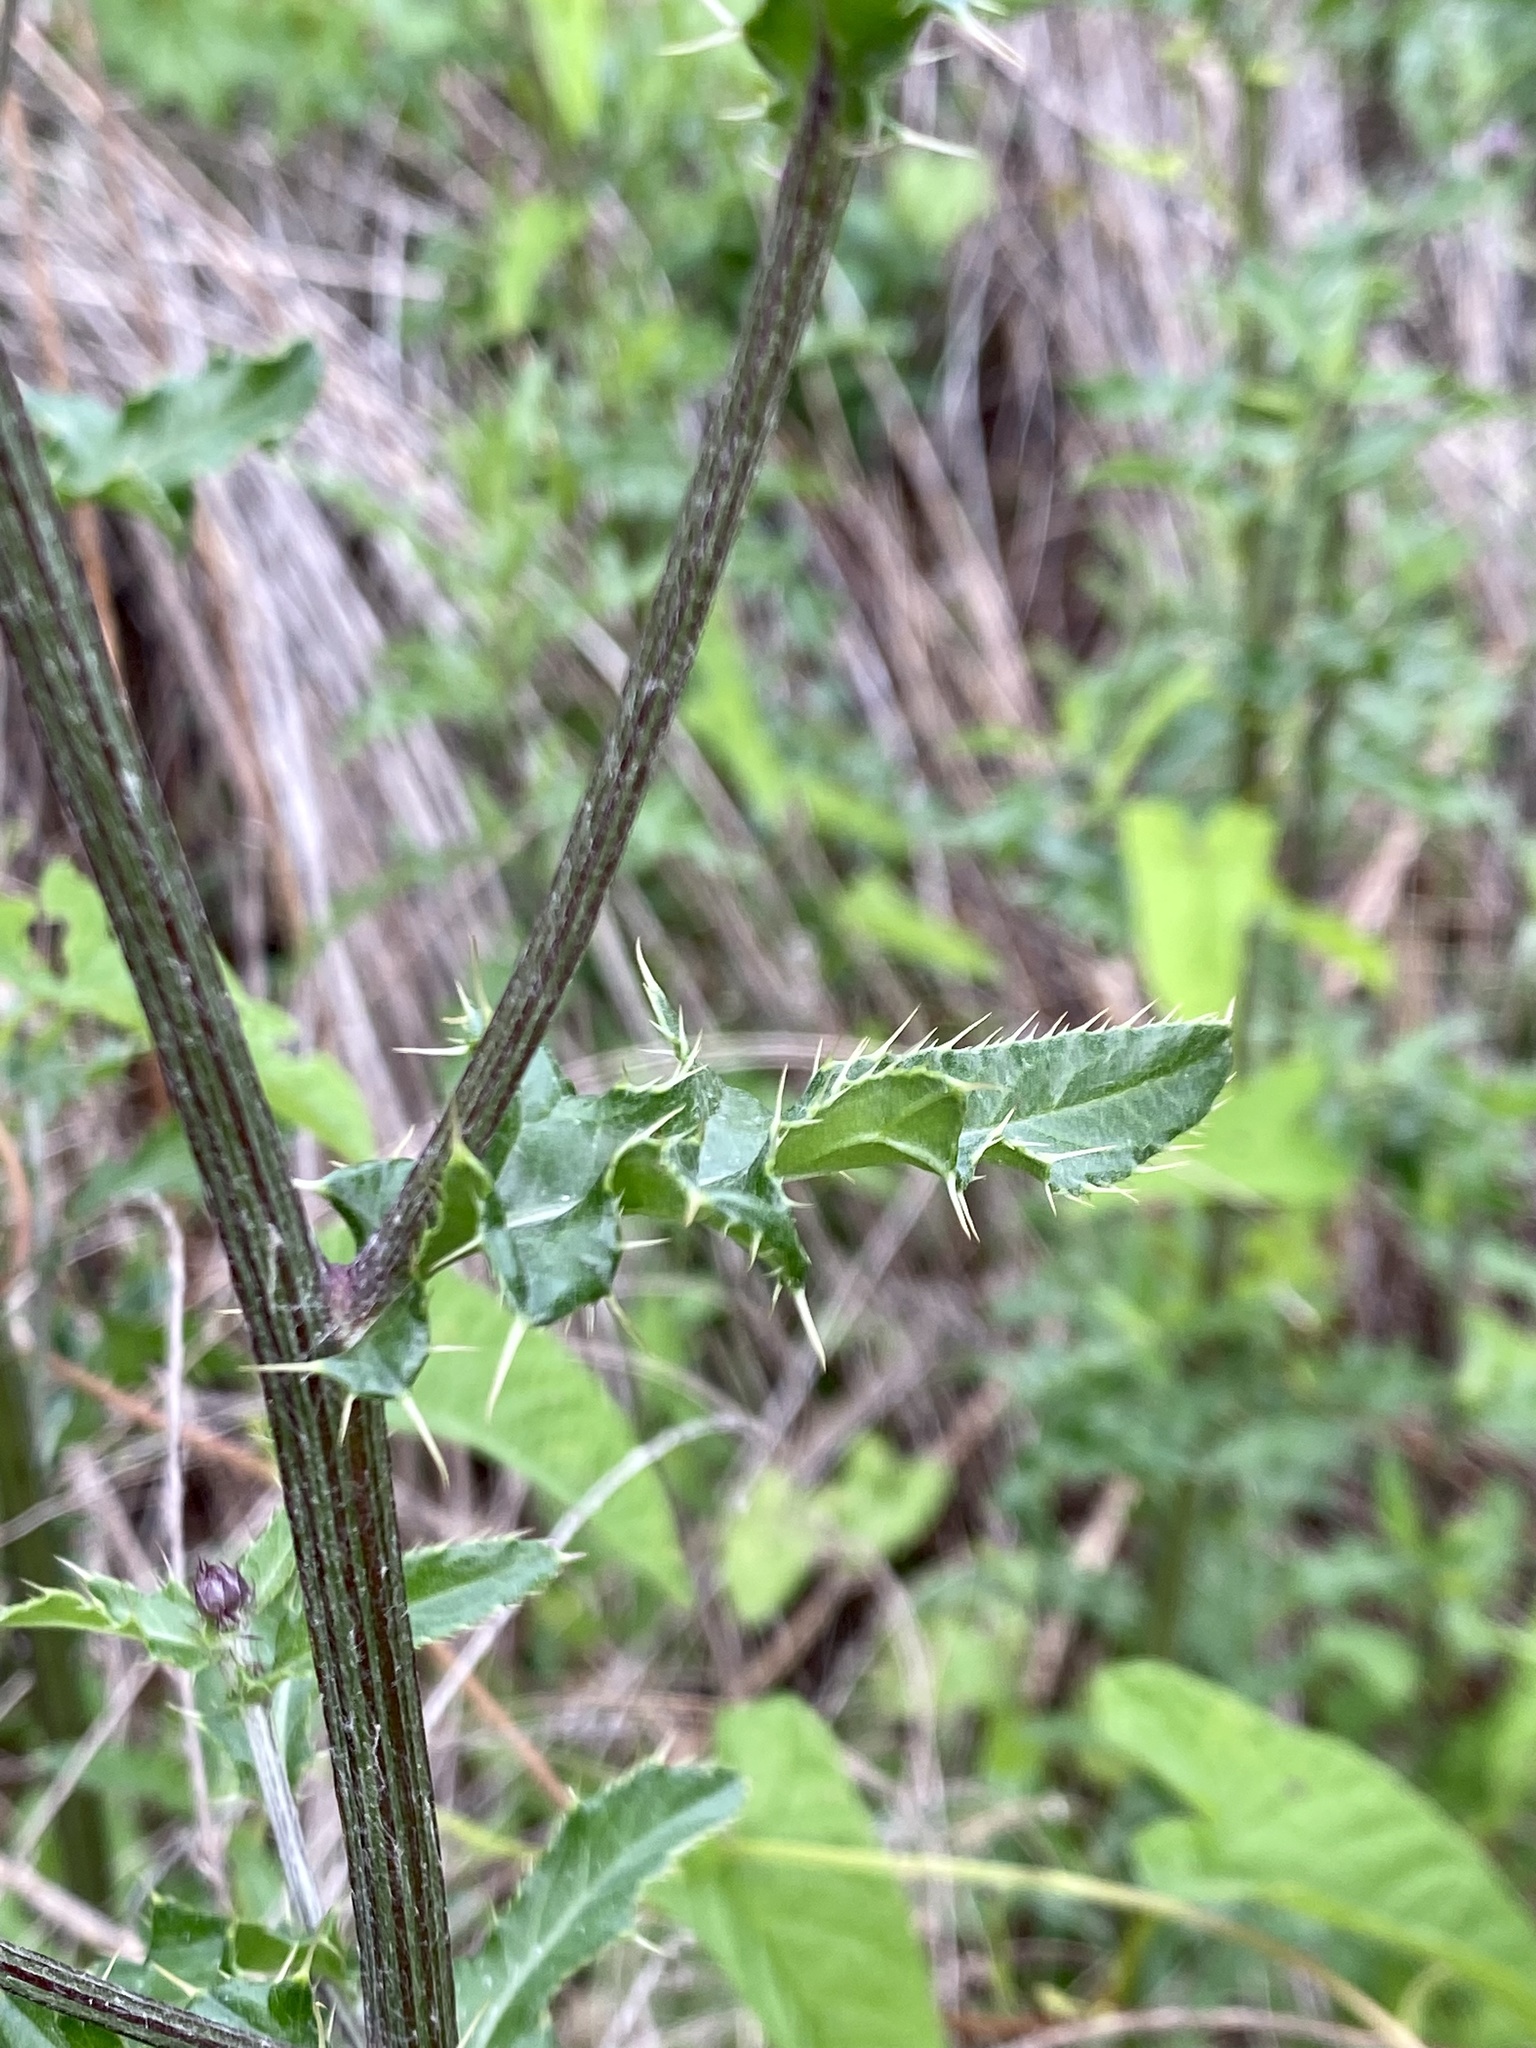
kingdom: Plantae
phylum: Tracheophyta
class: Magnoliopsida
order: Asterales
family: Asteraceae
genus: Cirsium
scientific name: Cirsium arvense
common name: Creeping thistle
